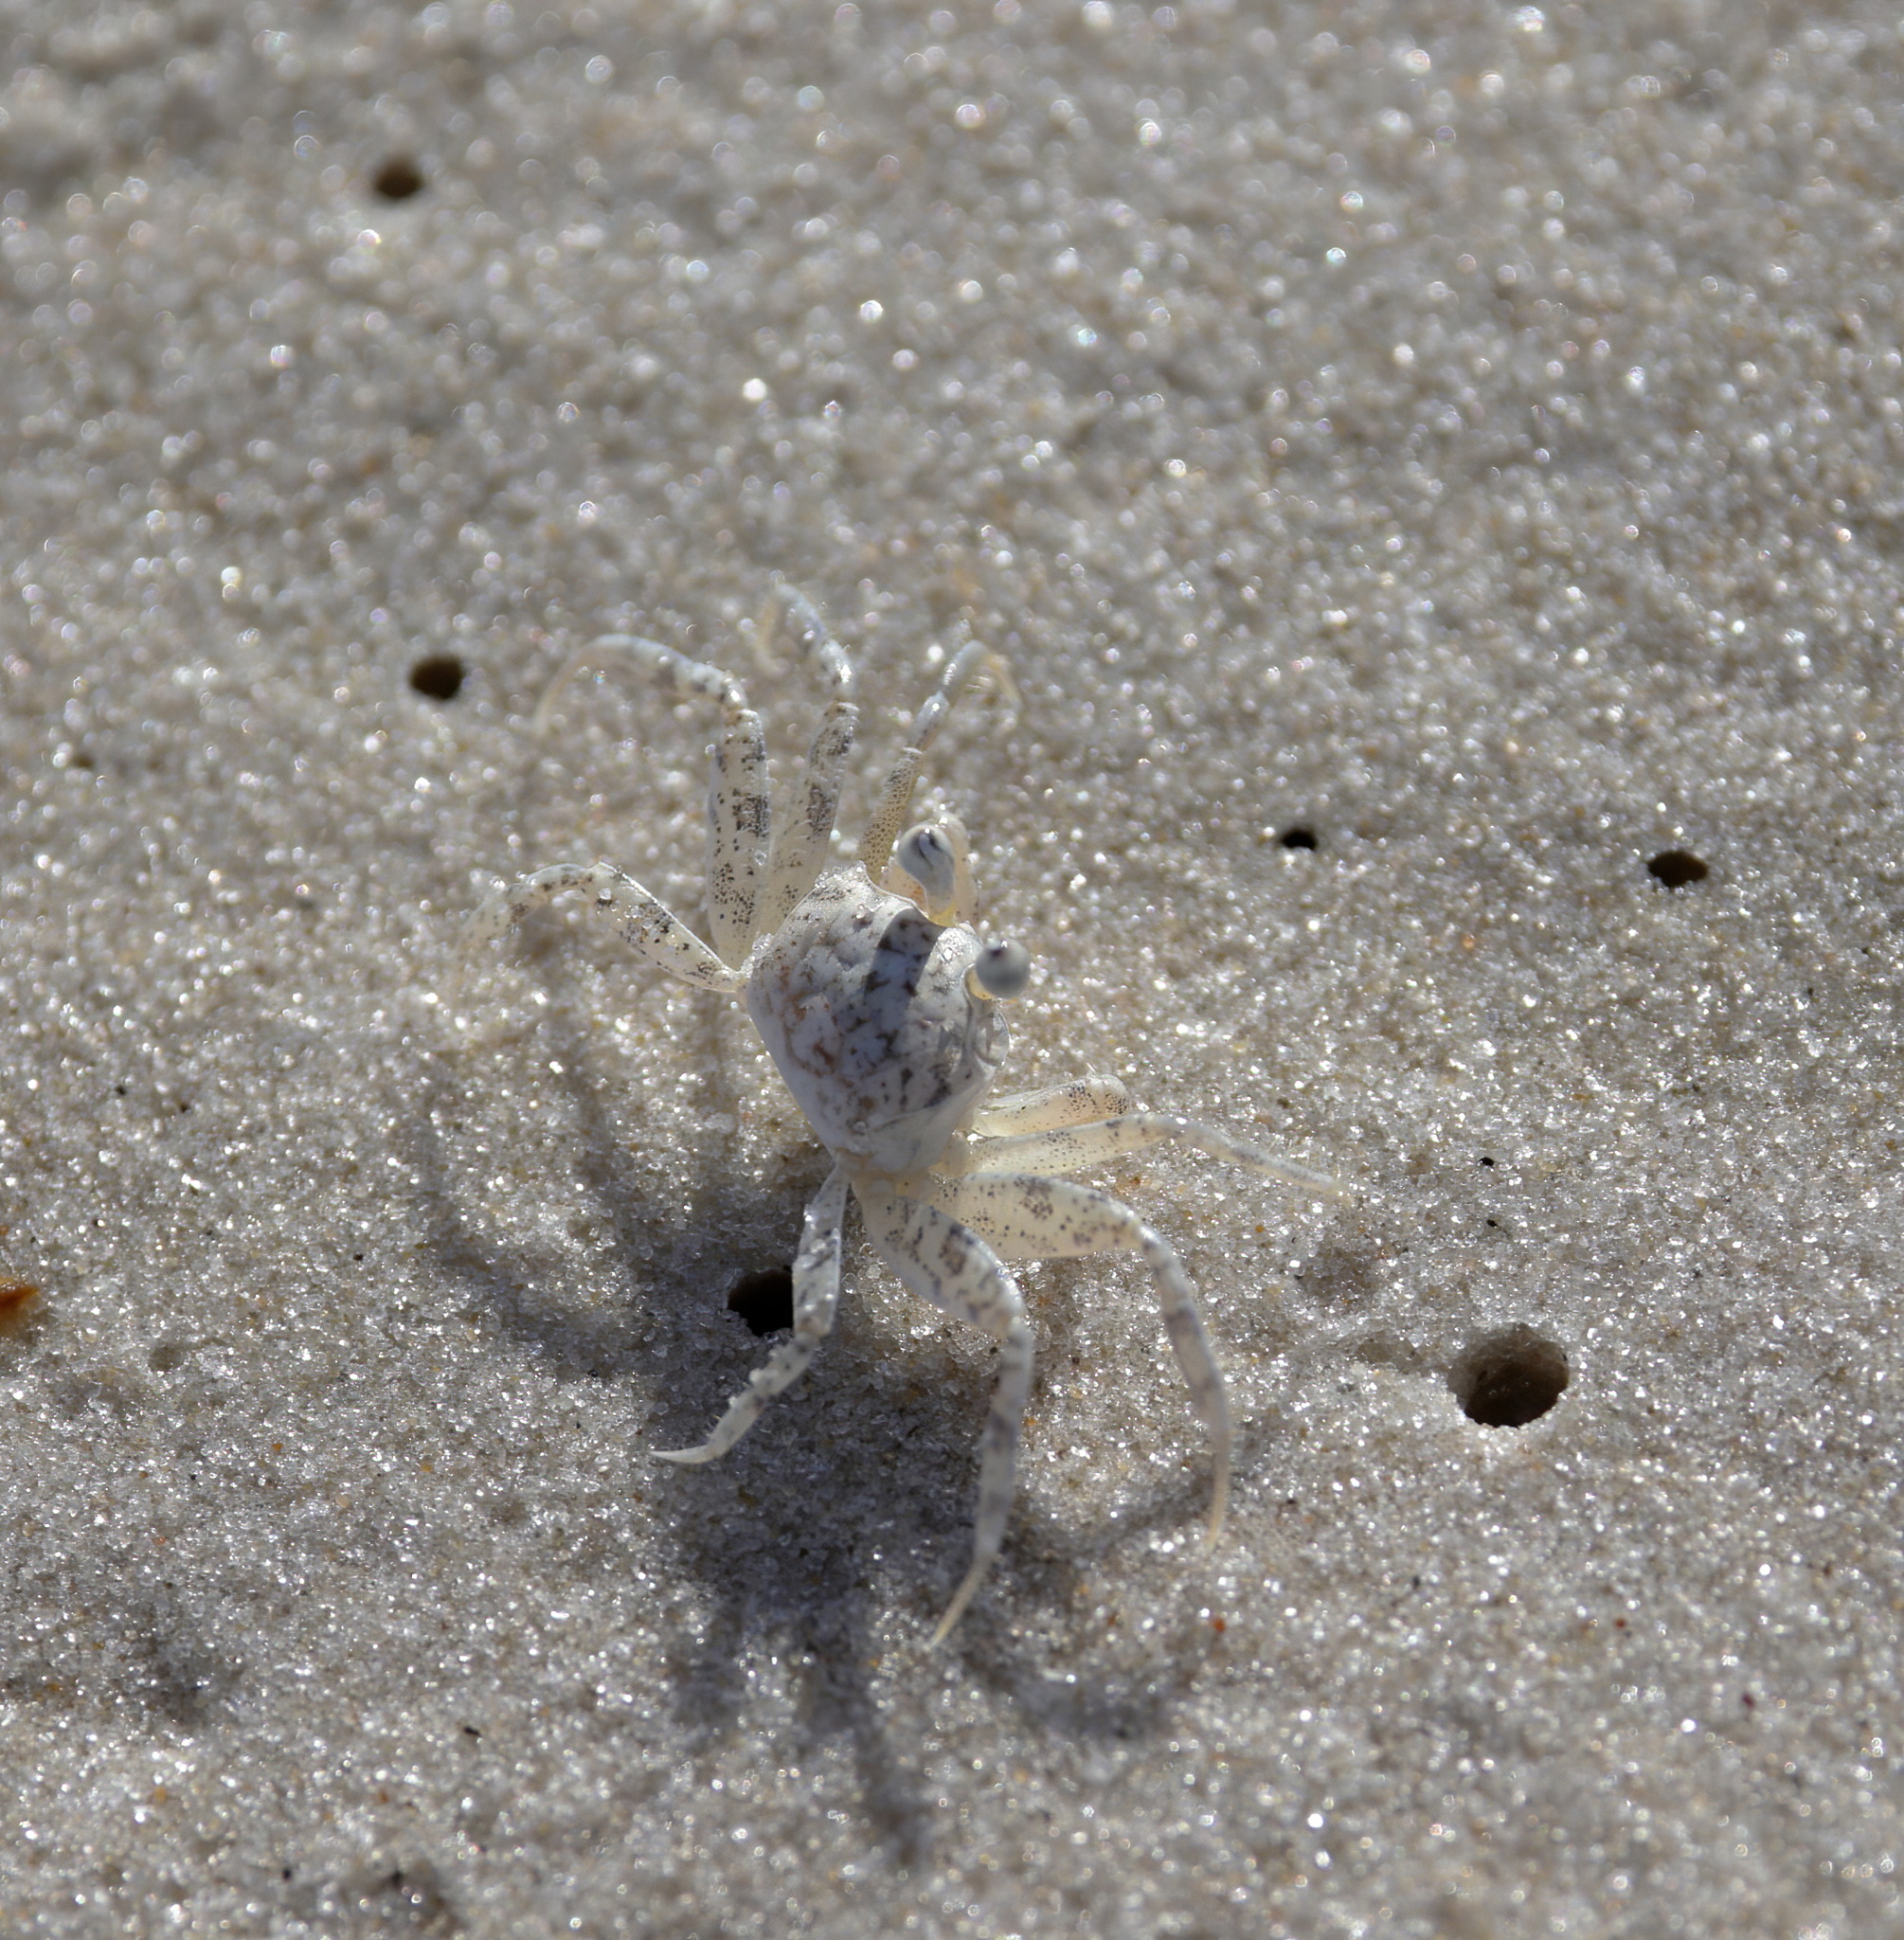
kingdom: Animalia
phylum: Arthropoda
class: Malacostraca
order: Decapoda
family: Ocypodidae
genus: Ocypode
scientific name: Ocypode quadrata
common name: Ghost crab
